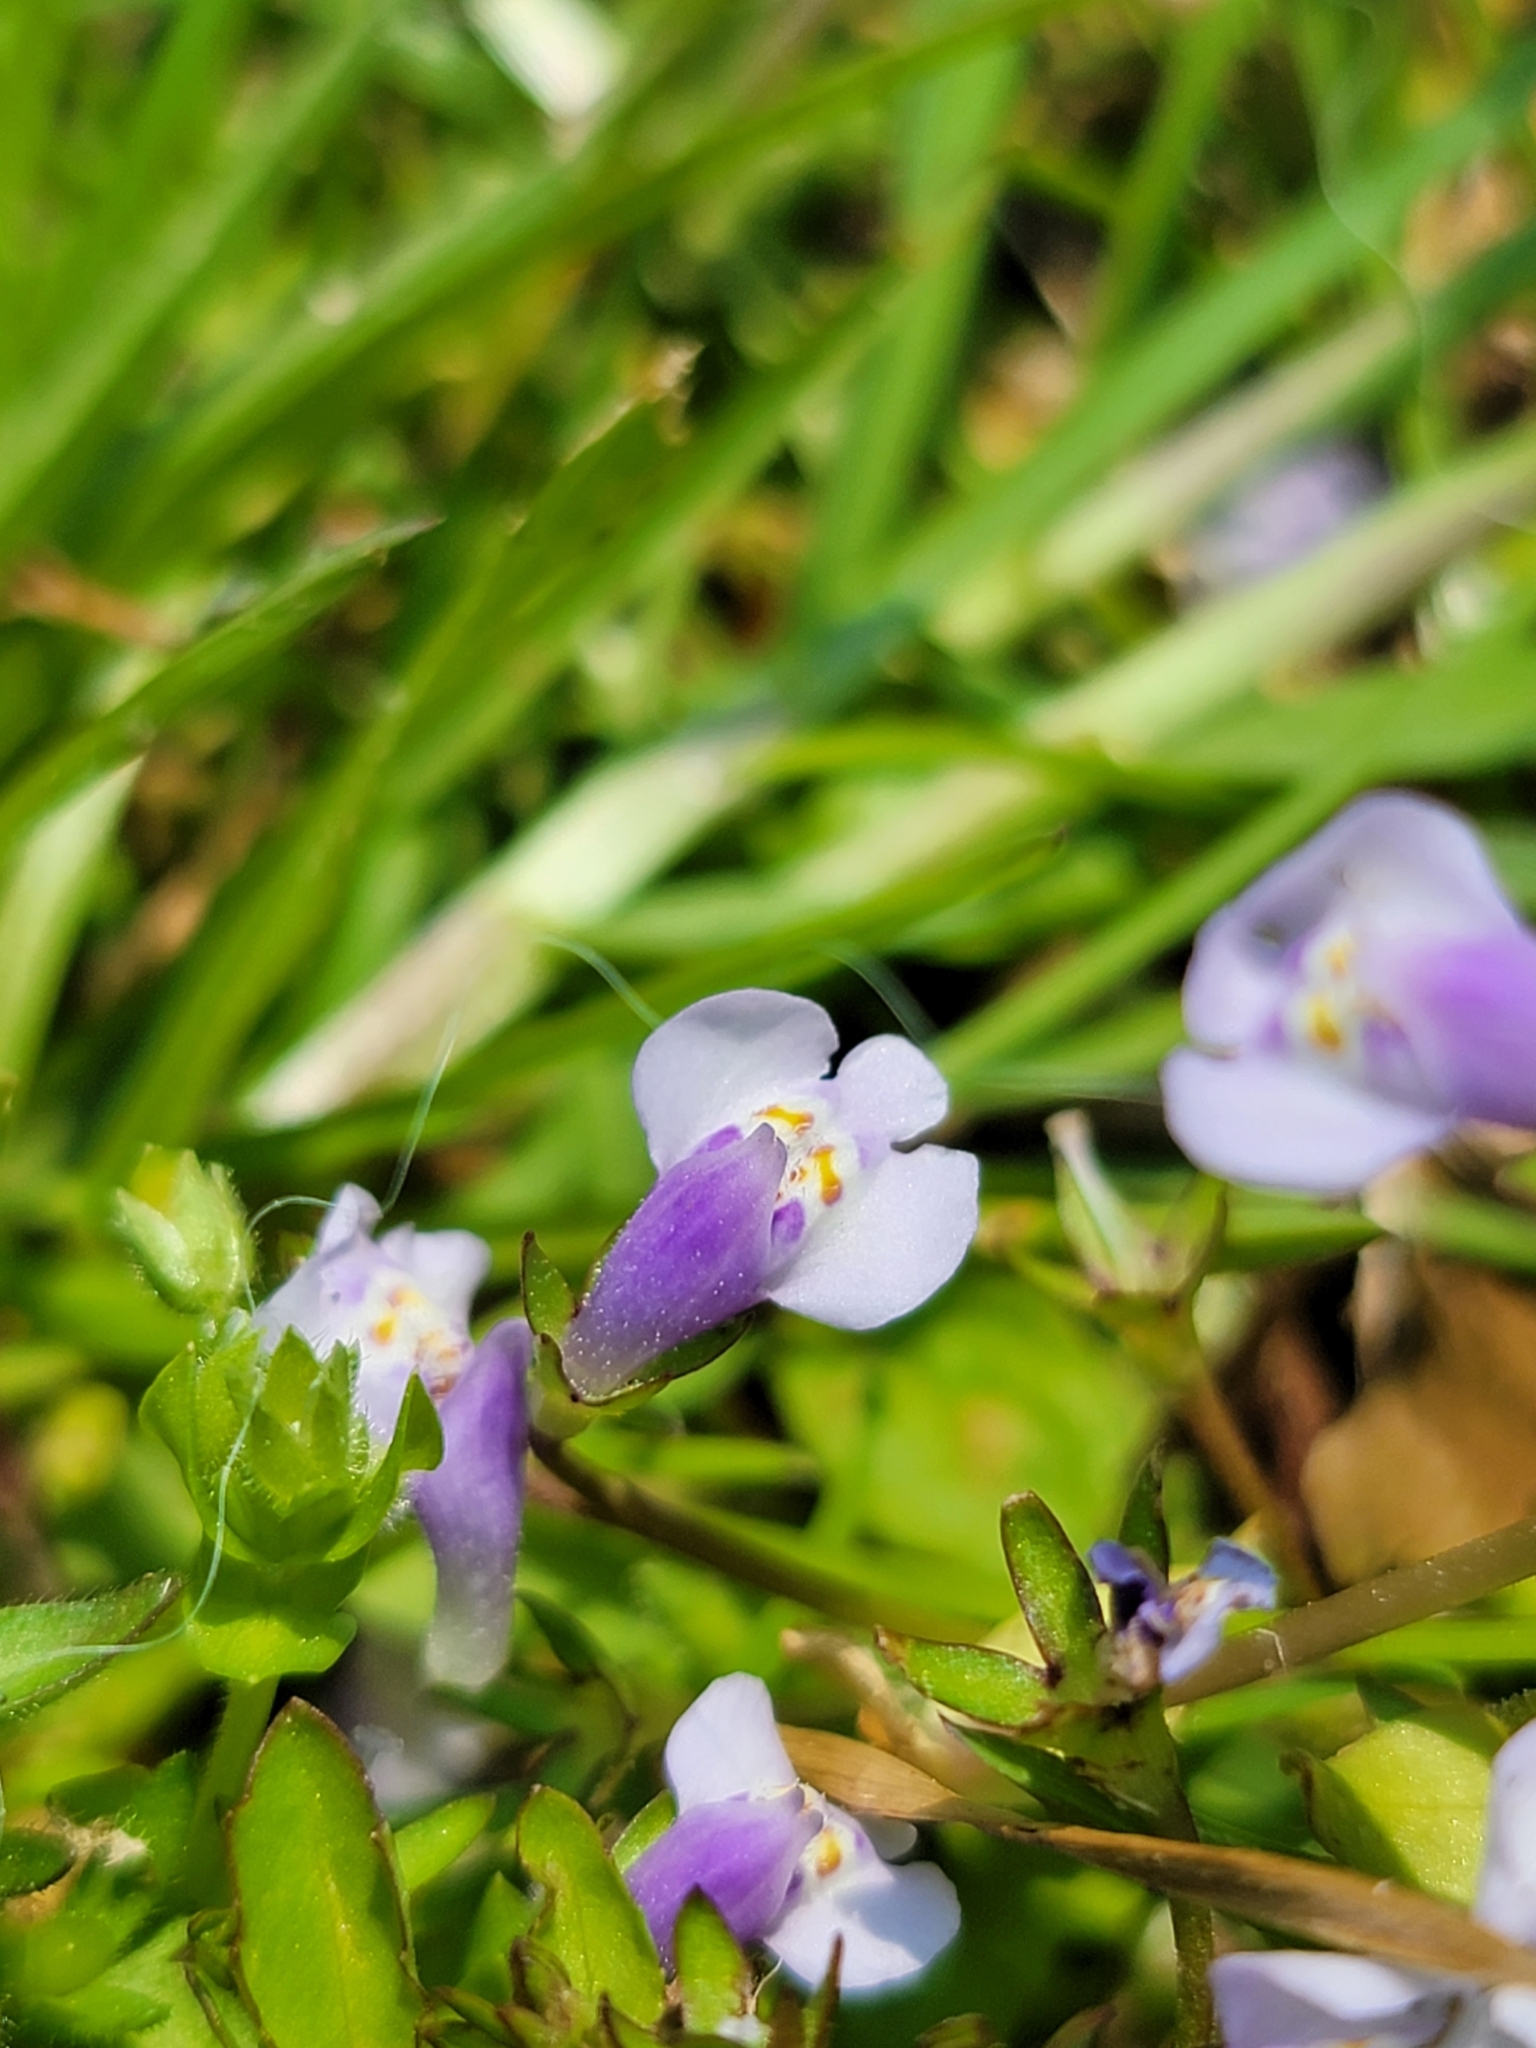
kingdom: Plantae
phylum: Tracheophyta
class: Magnoliopsida
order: Lamiales
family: Mazaceae
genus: Mazus
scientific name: Mazus pumilus
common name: Japanese mazus
